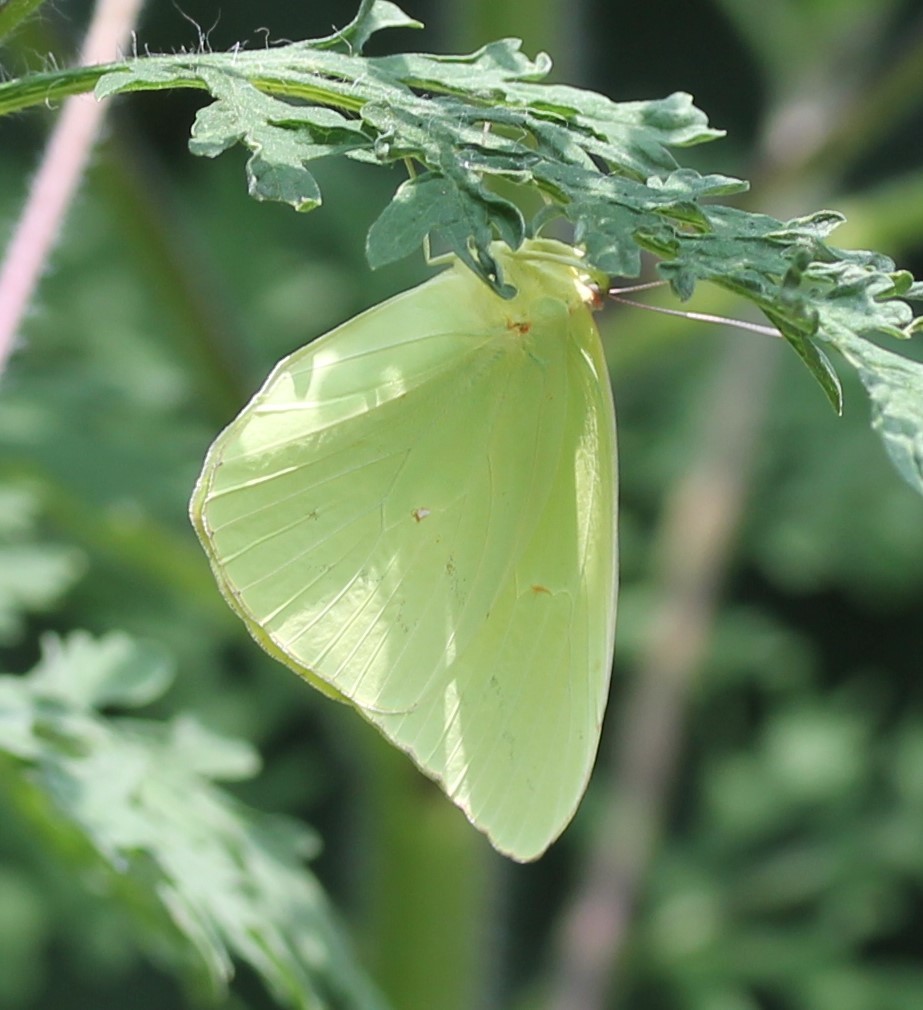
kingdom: Animalia
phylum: Arthropoda
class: Insecta
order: Lepidoptera
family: Pieridae
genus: Phoebis
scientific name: Phoebis sennae
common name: Cloudless sulphur
